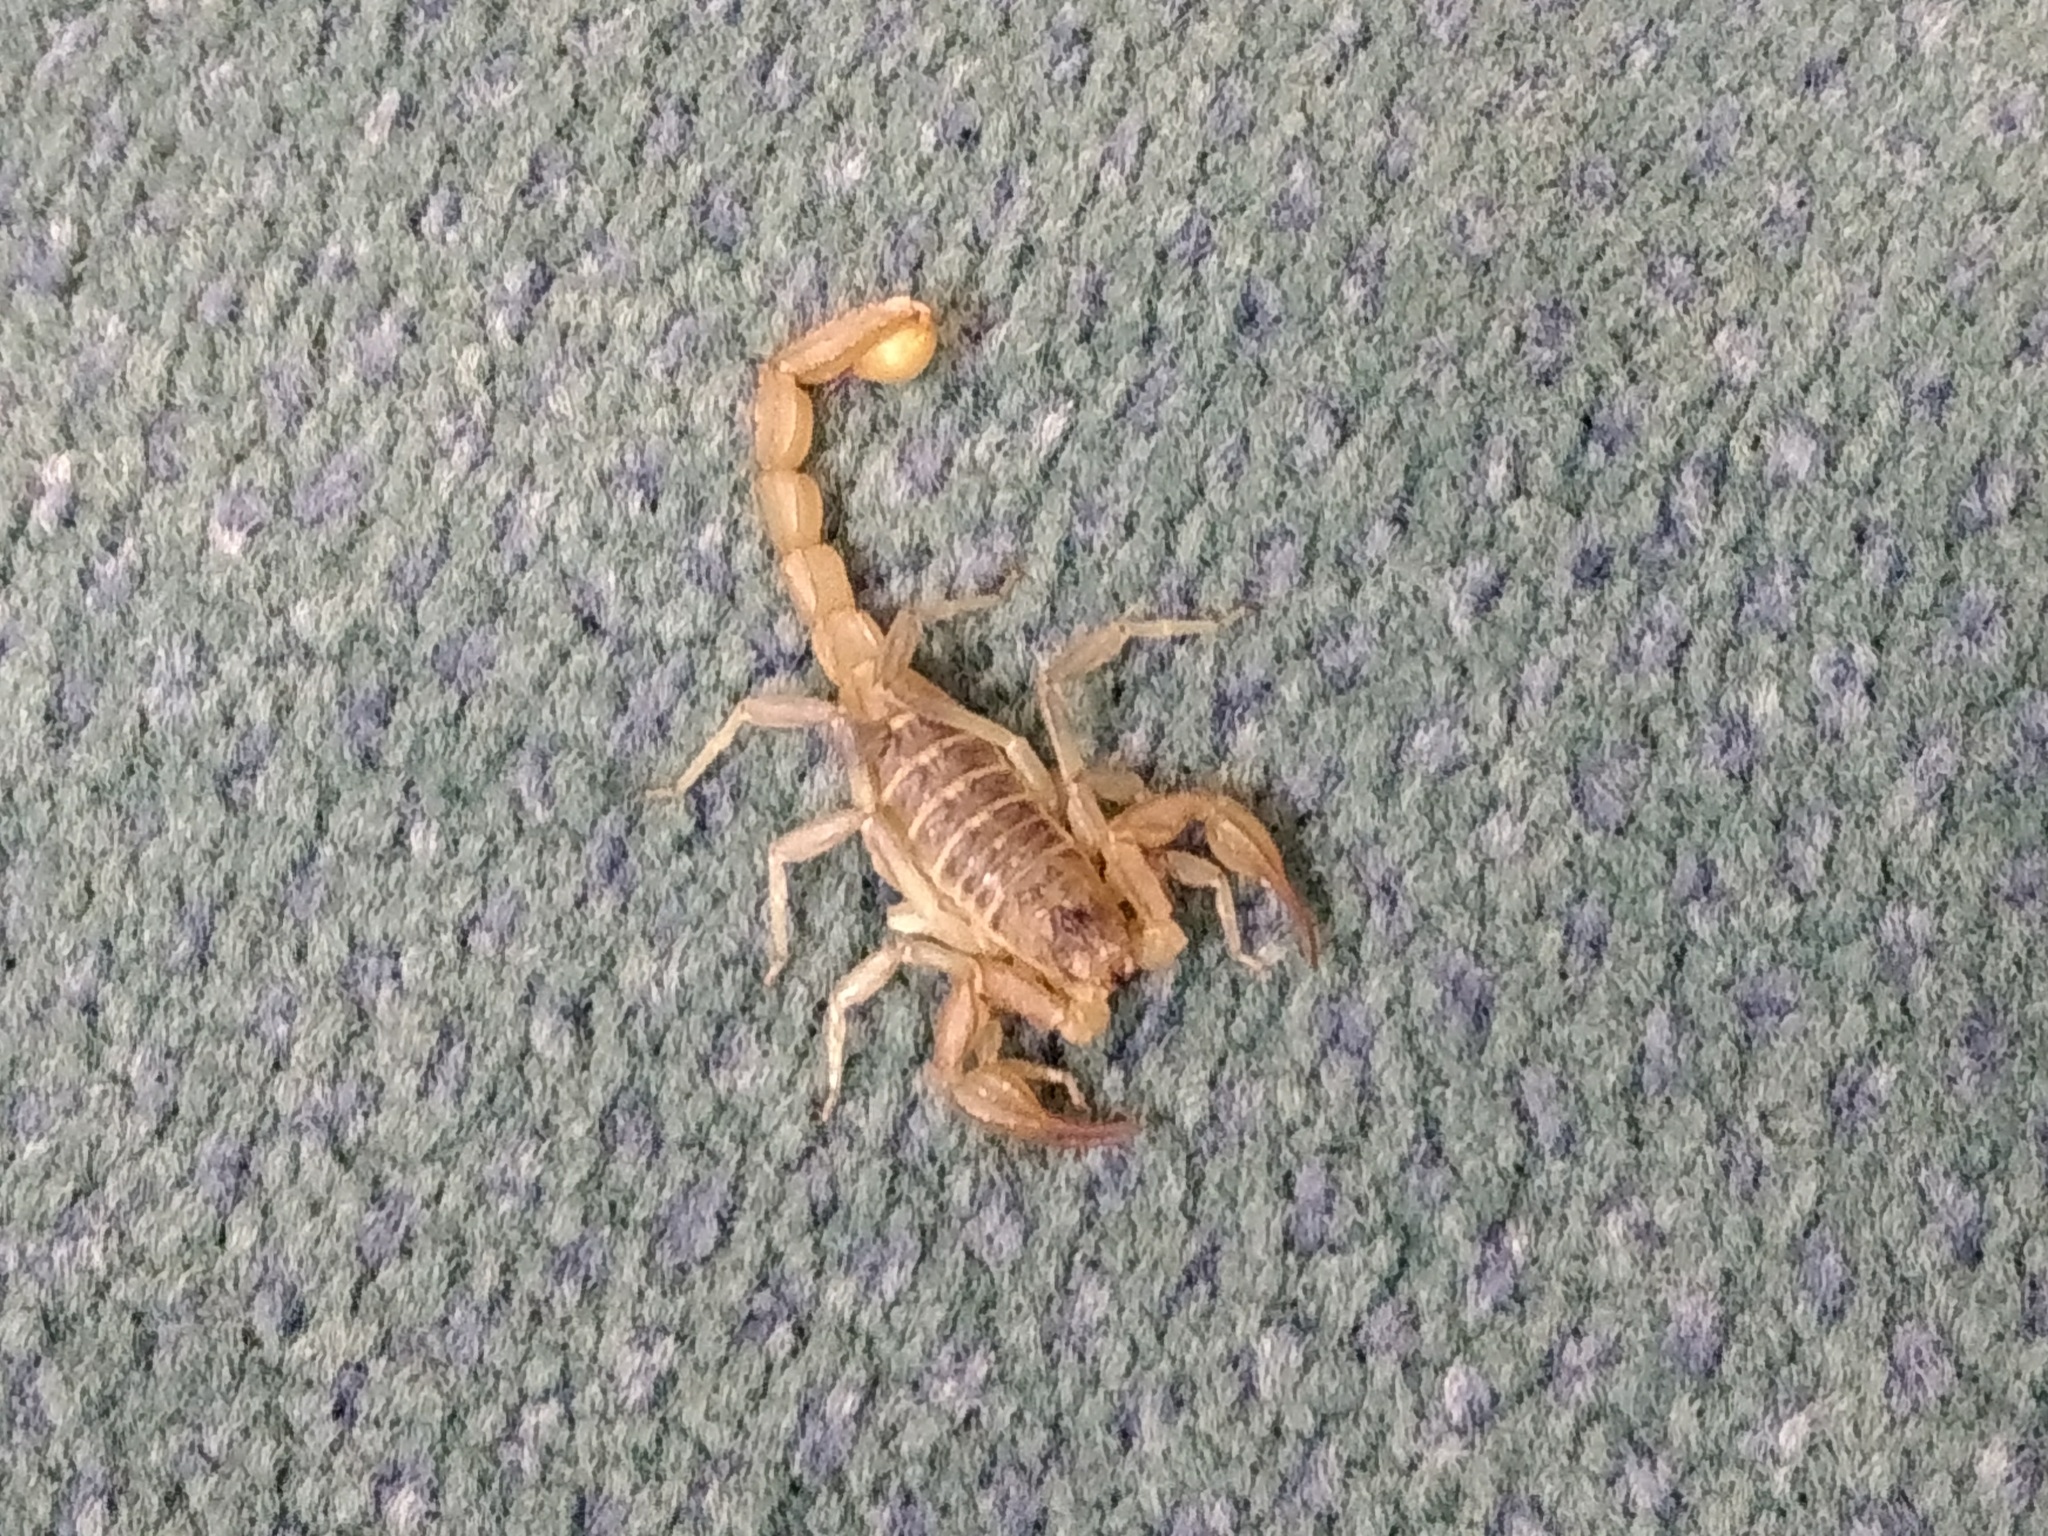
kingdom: Animalia
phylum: Arthropoda
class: Arachnida
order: Scorpiones
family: Vaejovidae
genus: Paruroctonus
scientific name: Paruroctonus silvestrii
